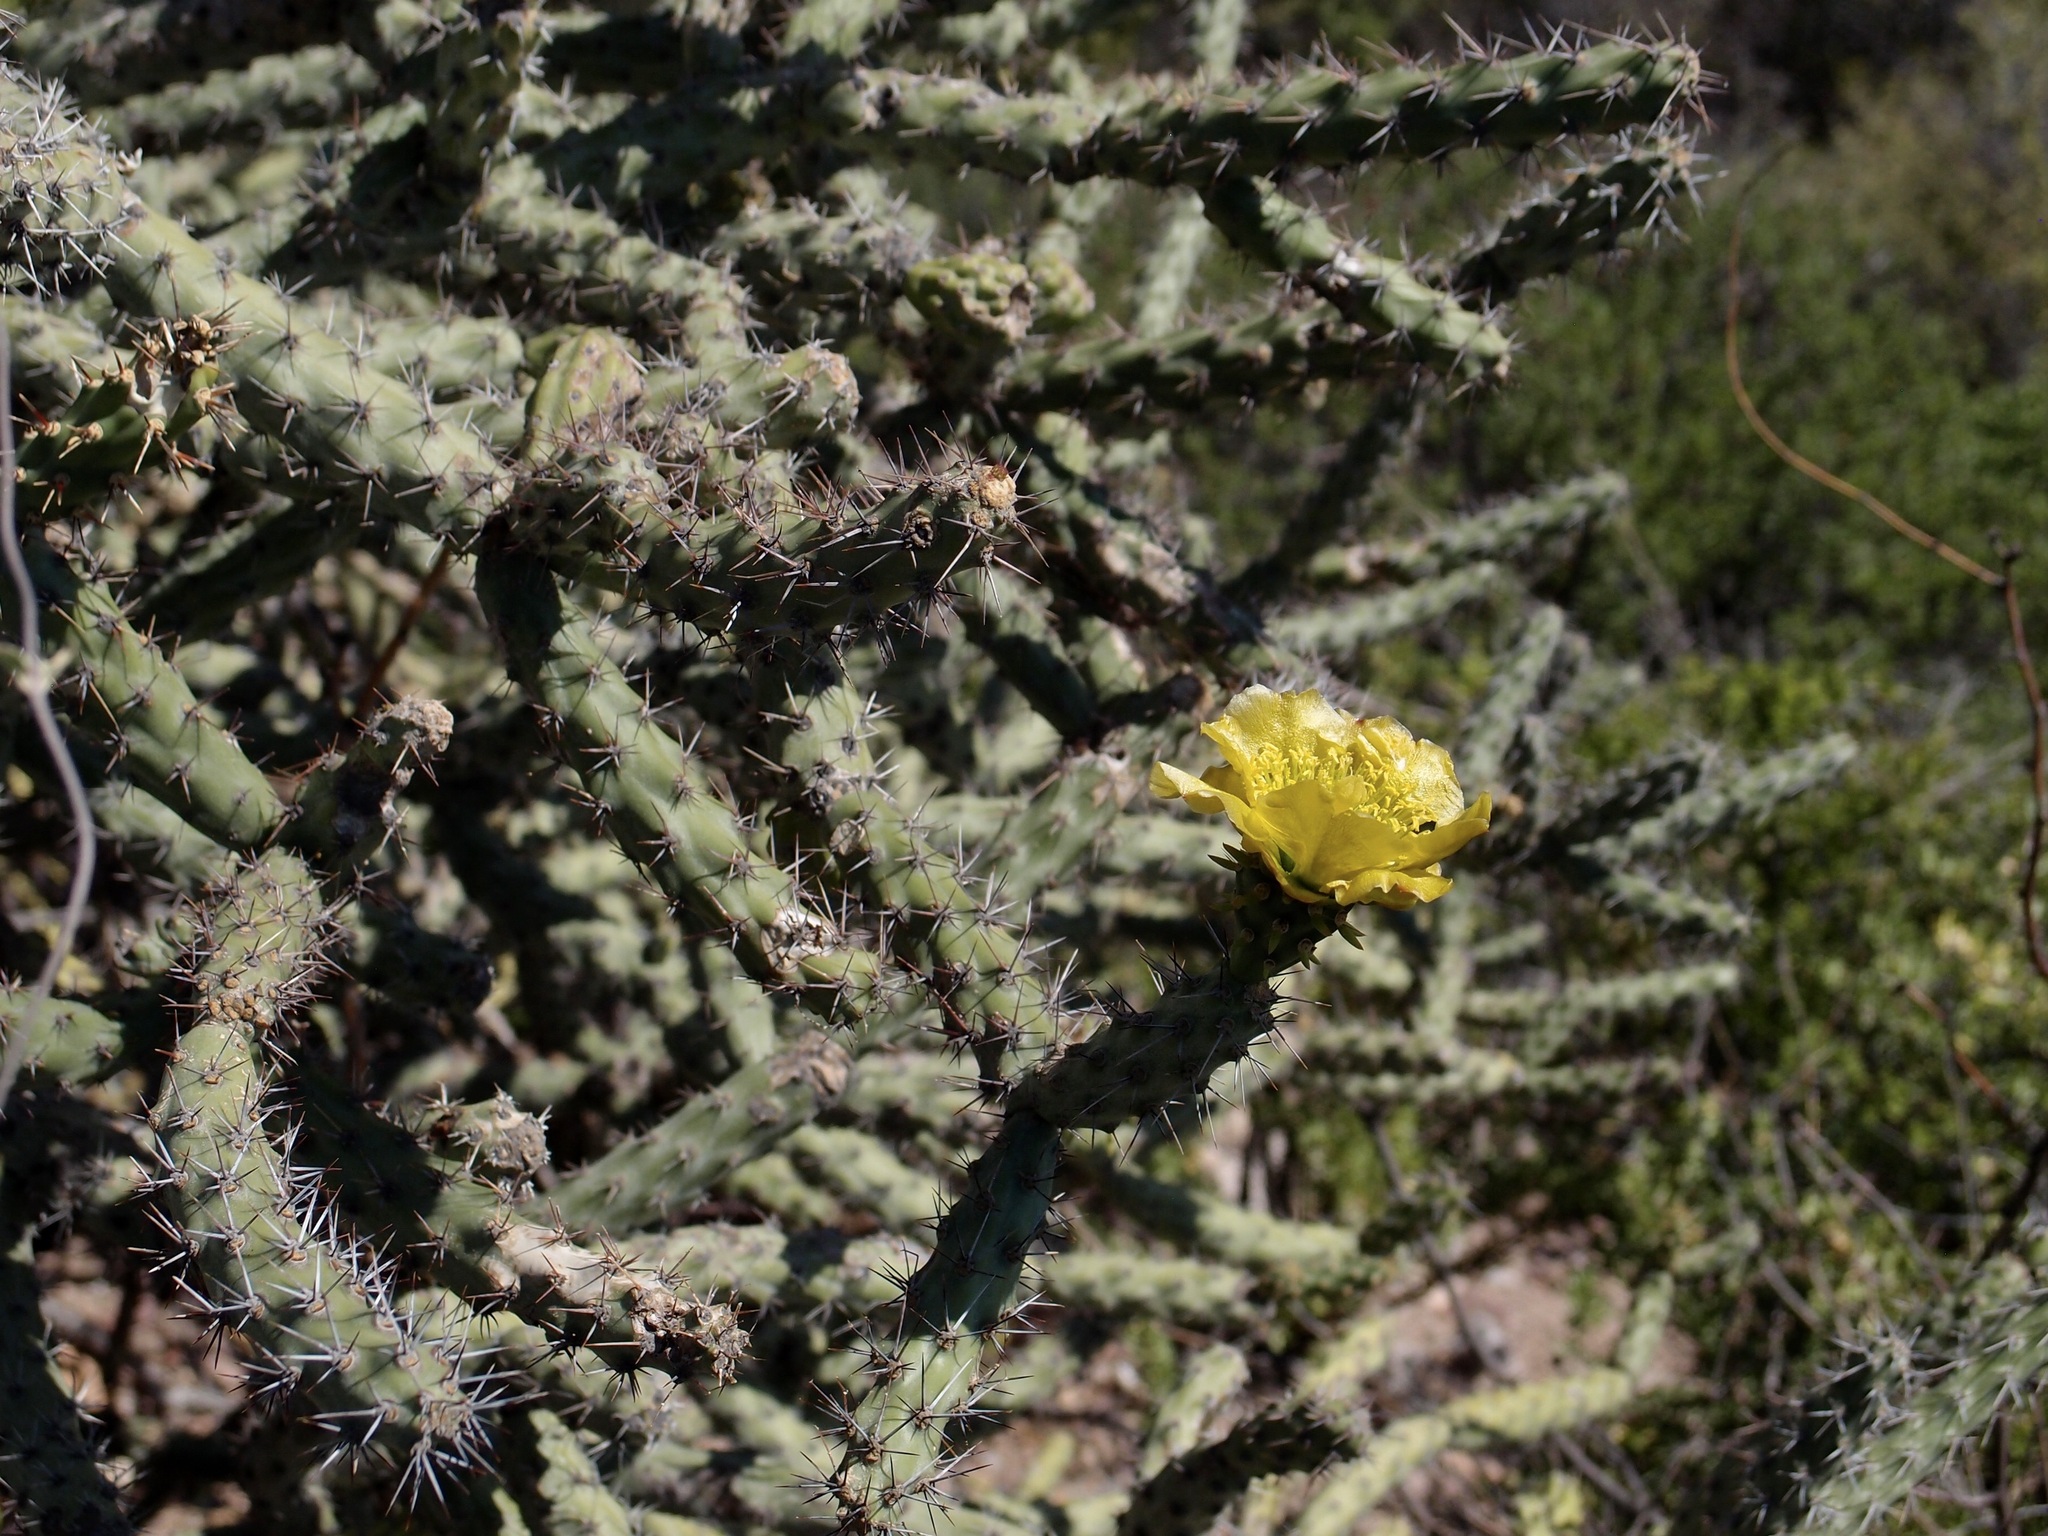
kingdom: Plantae
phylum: Tracheophyta
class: Magnoliopsida
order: Caryophyllales
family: Cactaceae
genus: Cylindropuntia
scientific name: Cylindropuntia thurberi
